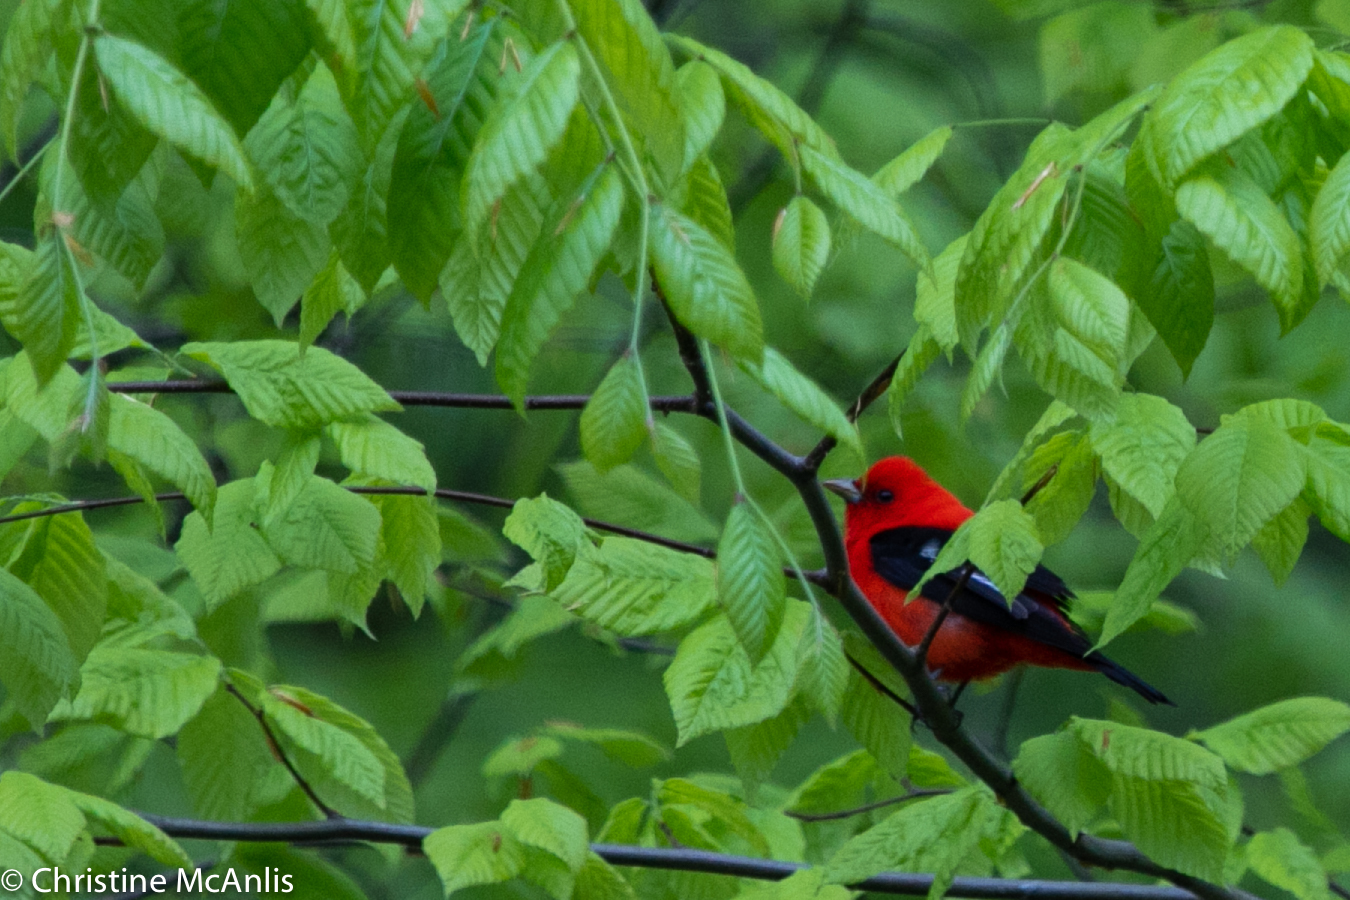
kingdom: Animalia
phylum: Chordata
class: Aves
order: Passeriformes
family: Cardinalidae
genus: Piranga
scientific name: Piranga olivacea
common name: Scarlet tanager
